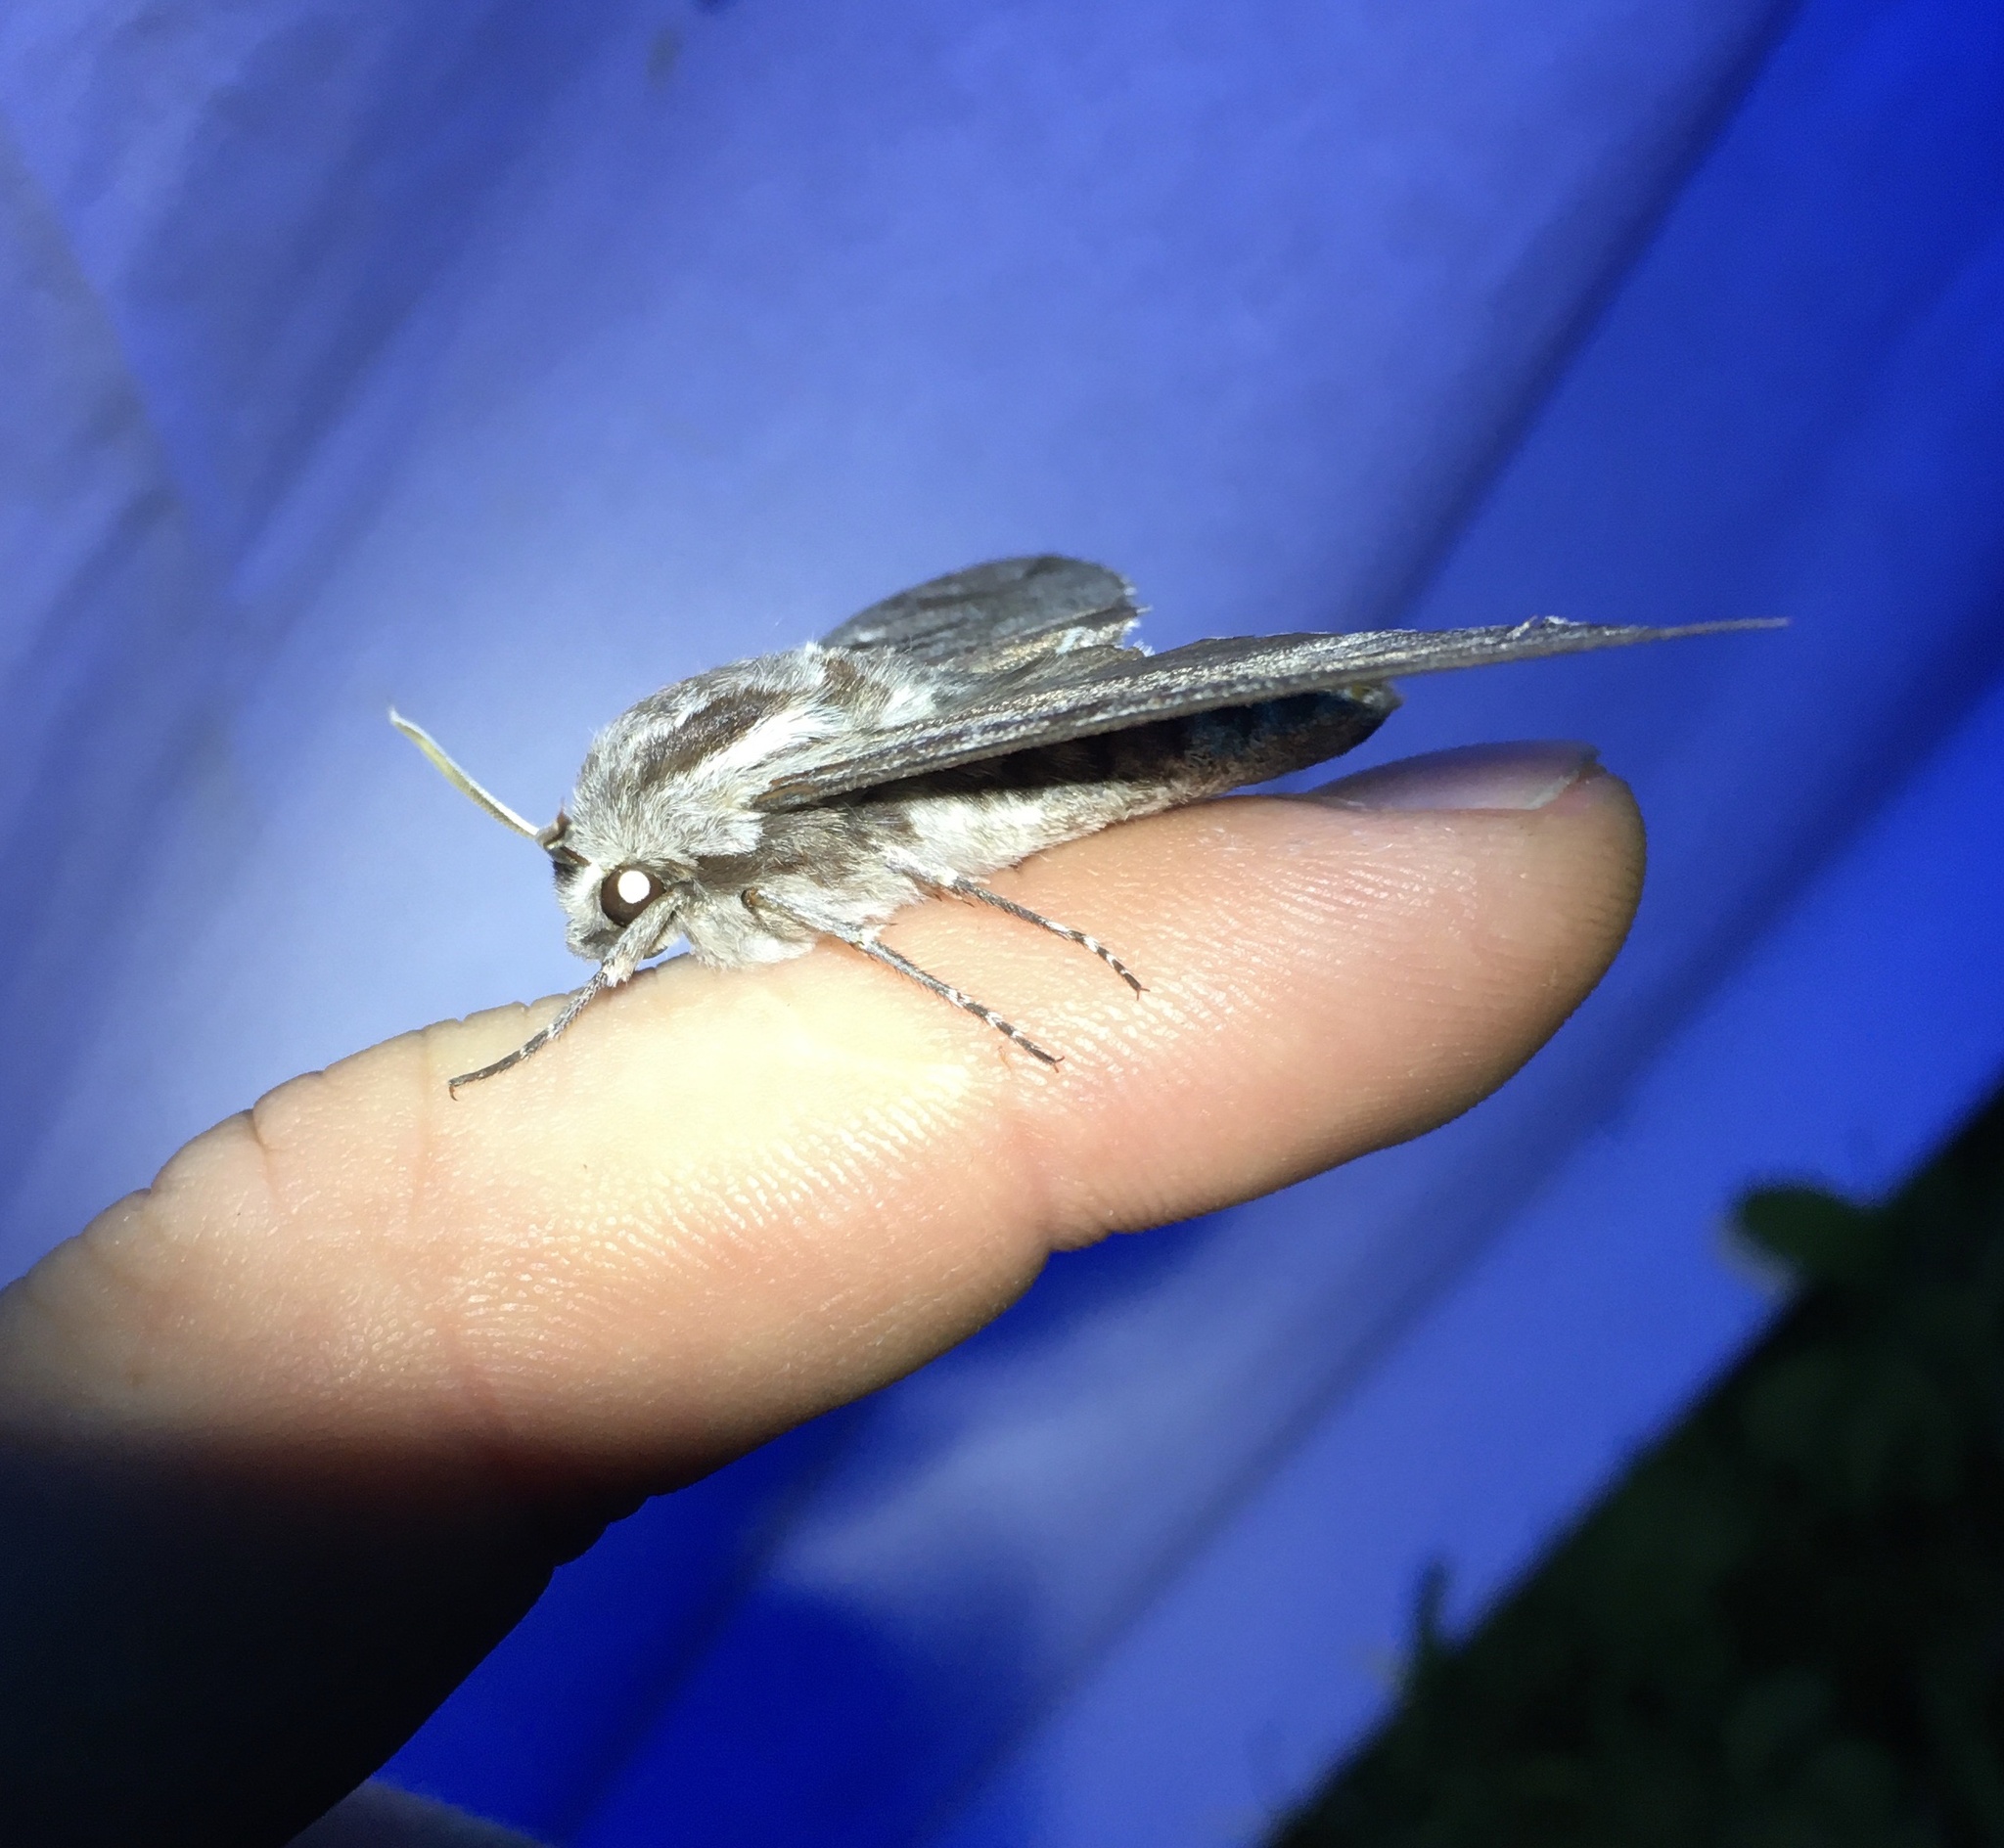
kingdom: Animalia
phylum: Arthropoda
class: Insecta
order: Lepidoptera
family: Sphingidae
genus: Sphinx
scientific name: Sphinx pinastri
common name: Pine hawk-moth
